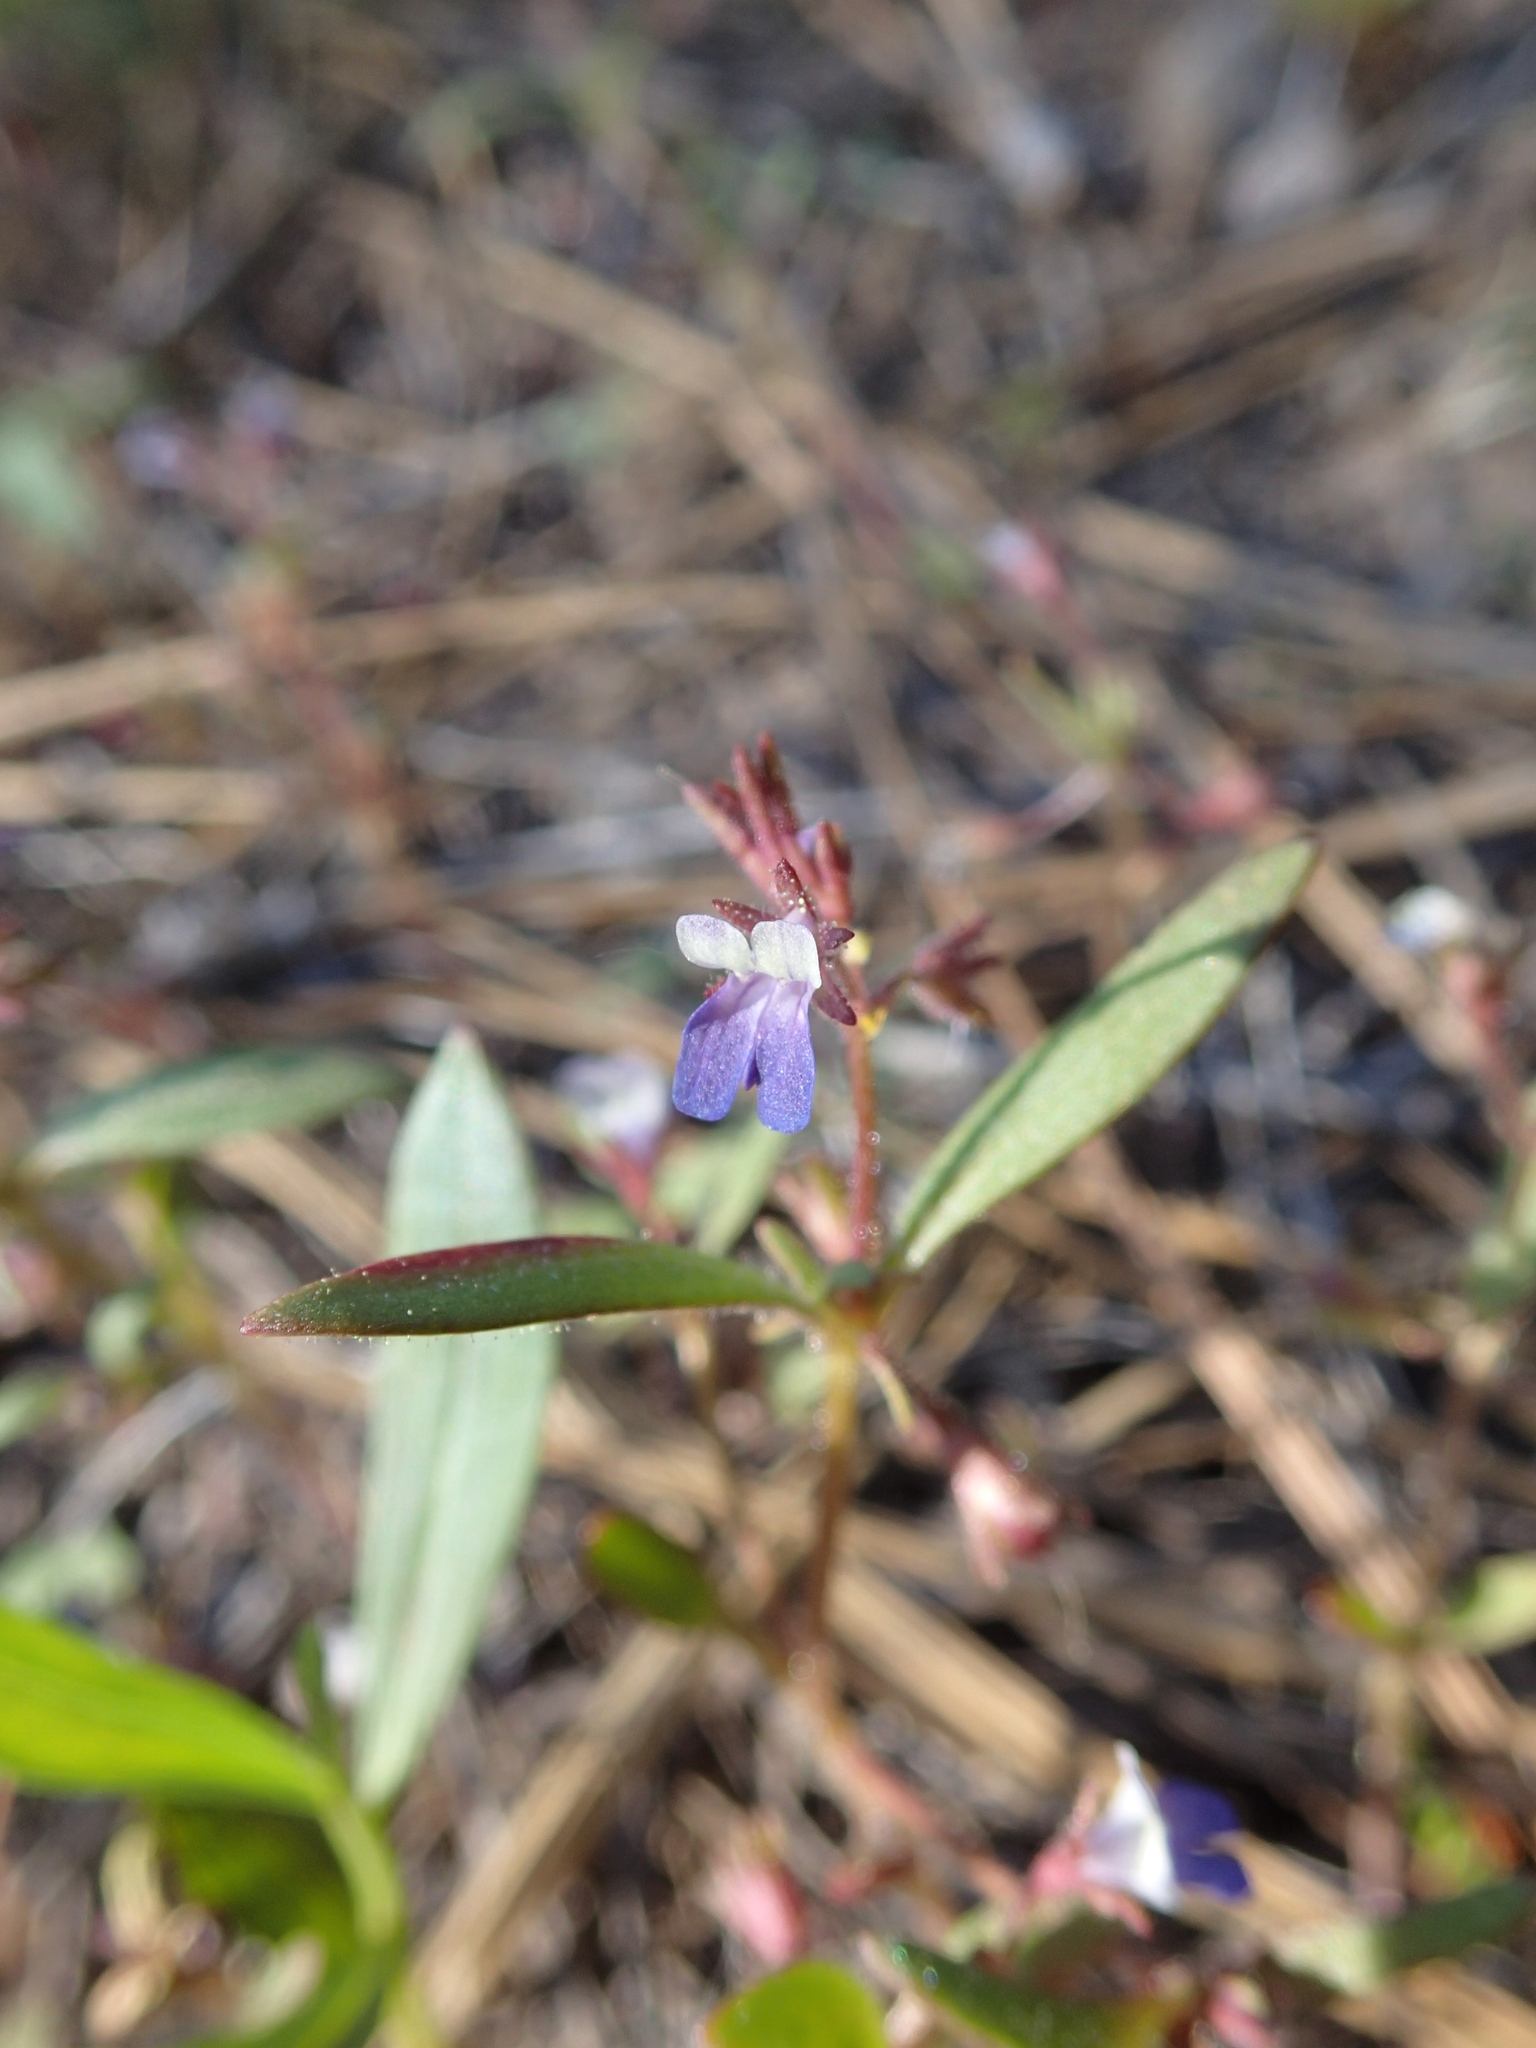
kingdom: Plantae
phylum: Tracheophyta
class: Magnoliopsida
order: Lamiales
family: Plantaginaceae
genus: Collinsia
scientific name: Collinsia torreyi
